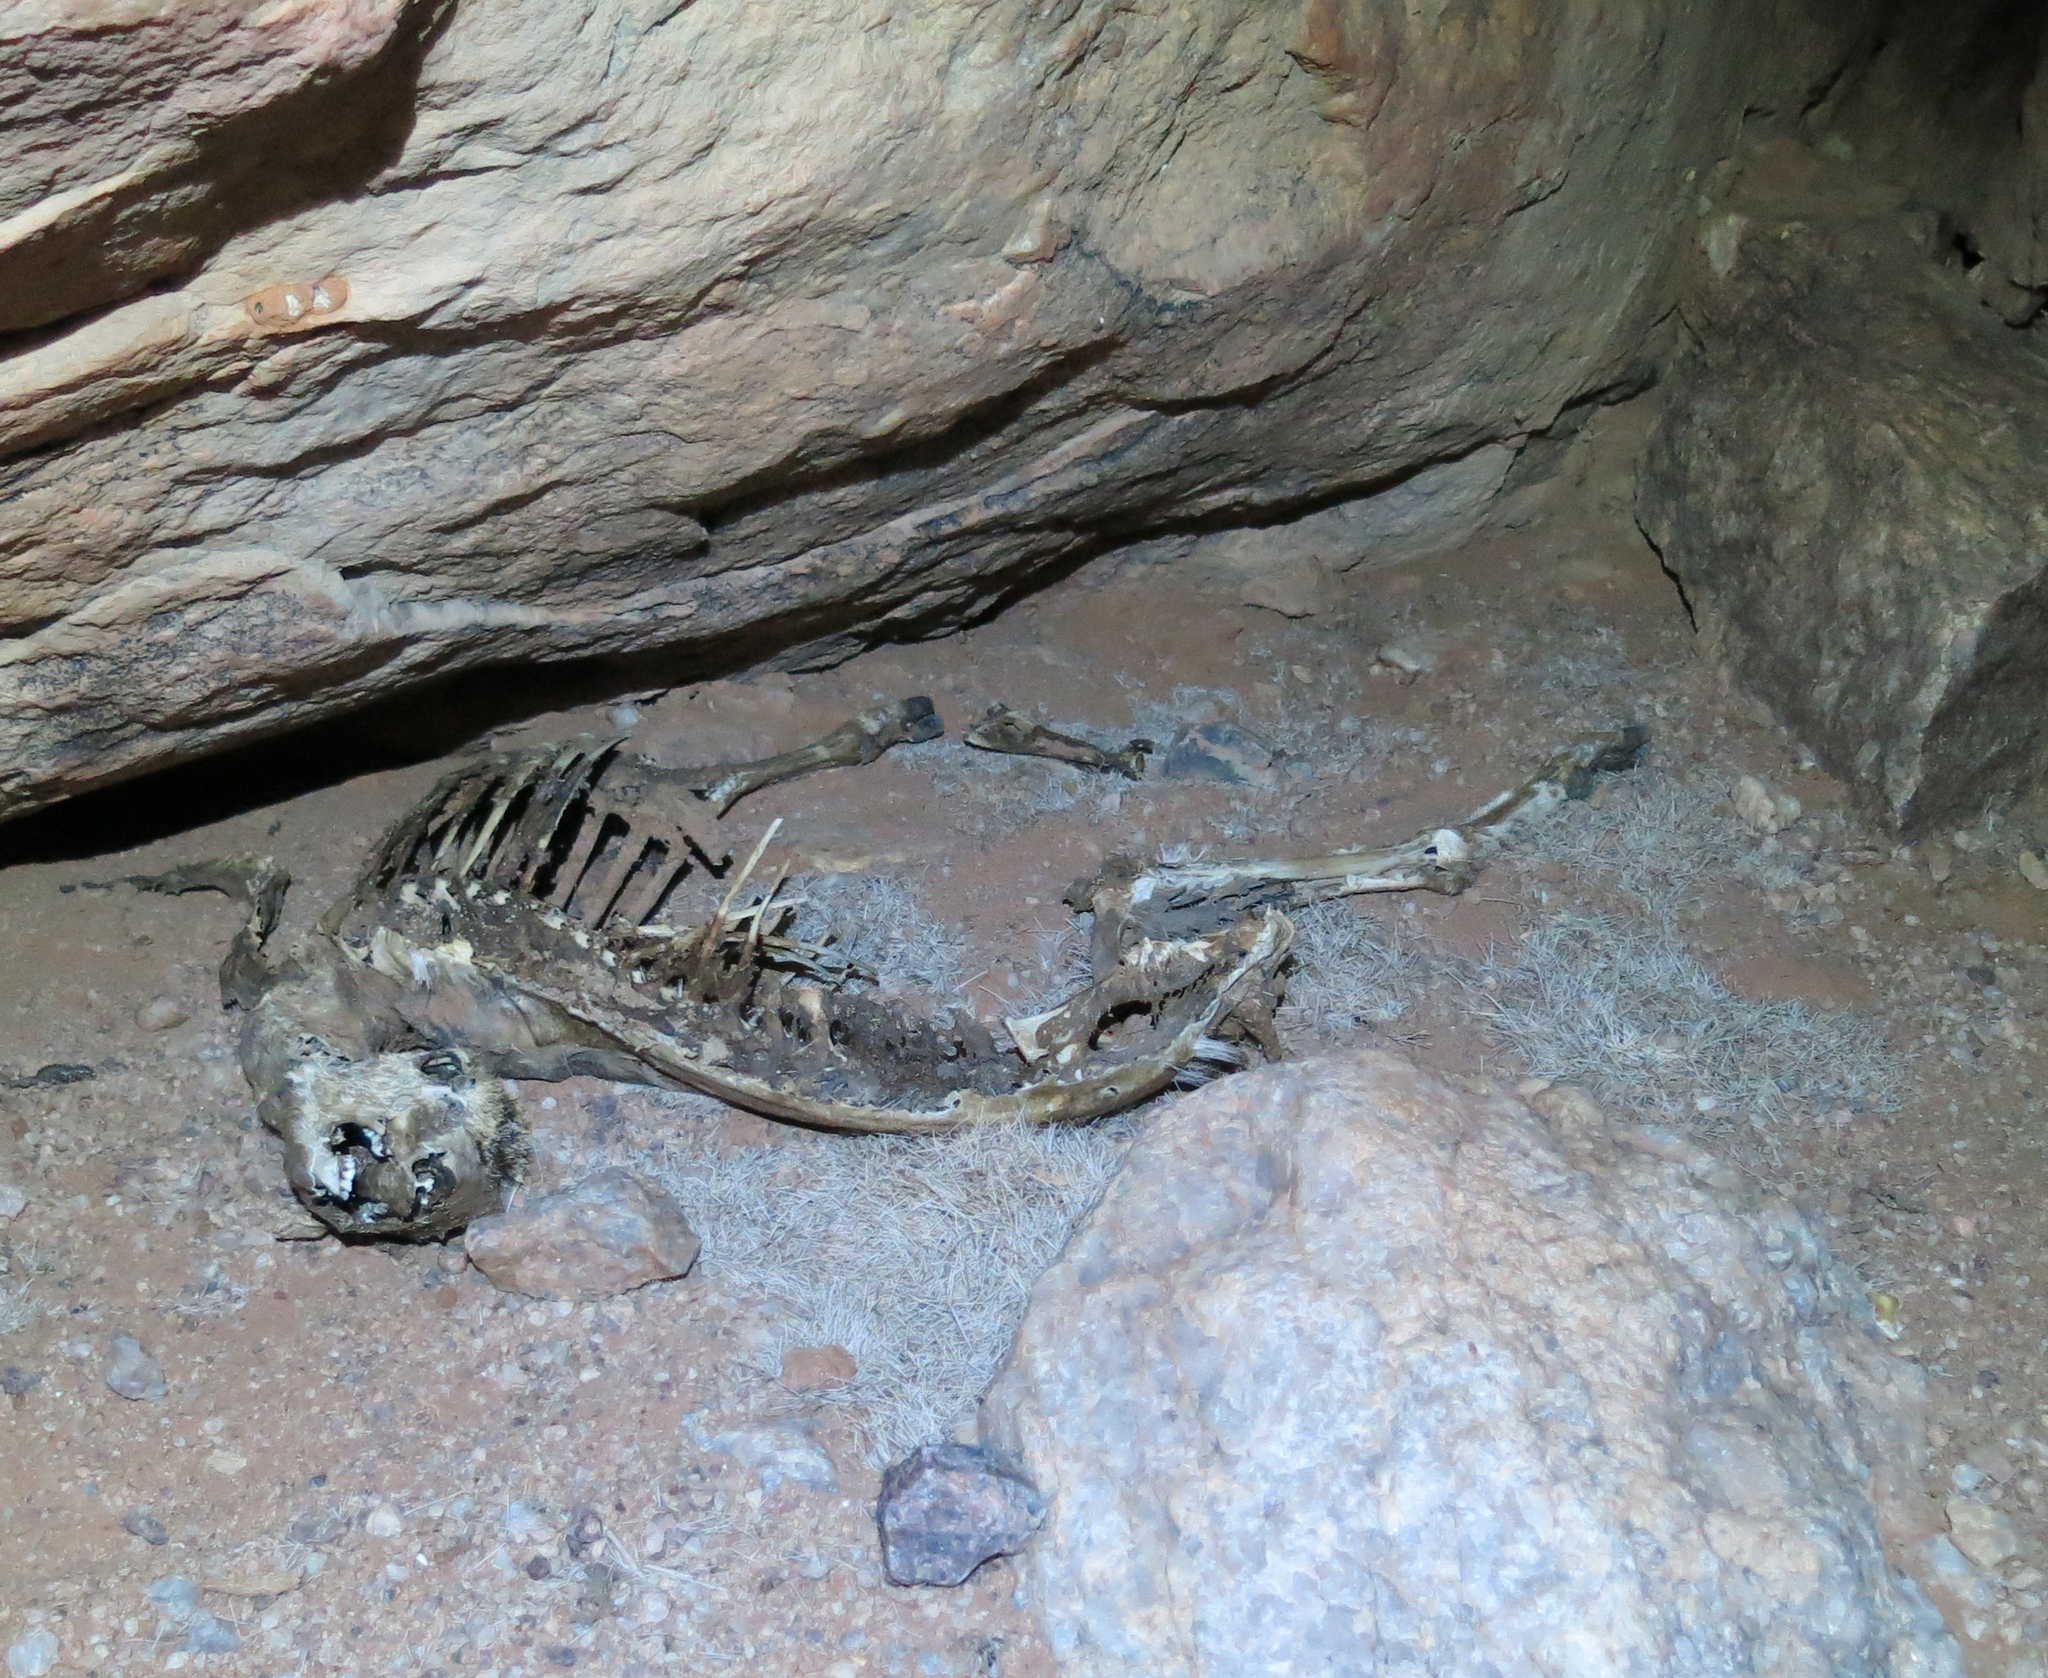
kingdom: Animalia
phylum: Chordata
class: Mammalia
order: Artiodactyla
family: Bovidae
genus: Oreotragus
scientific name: Oreotragus oreotragus
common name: Klipspringer
